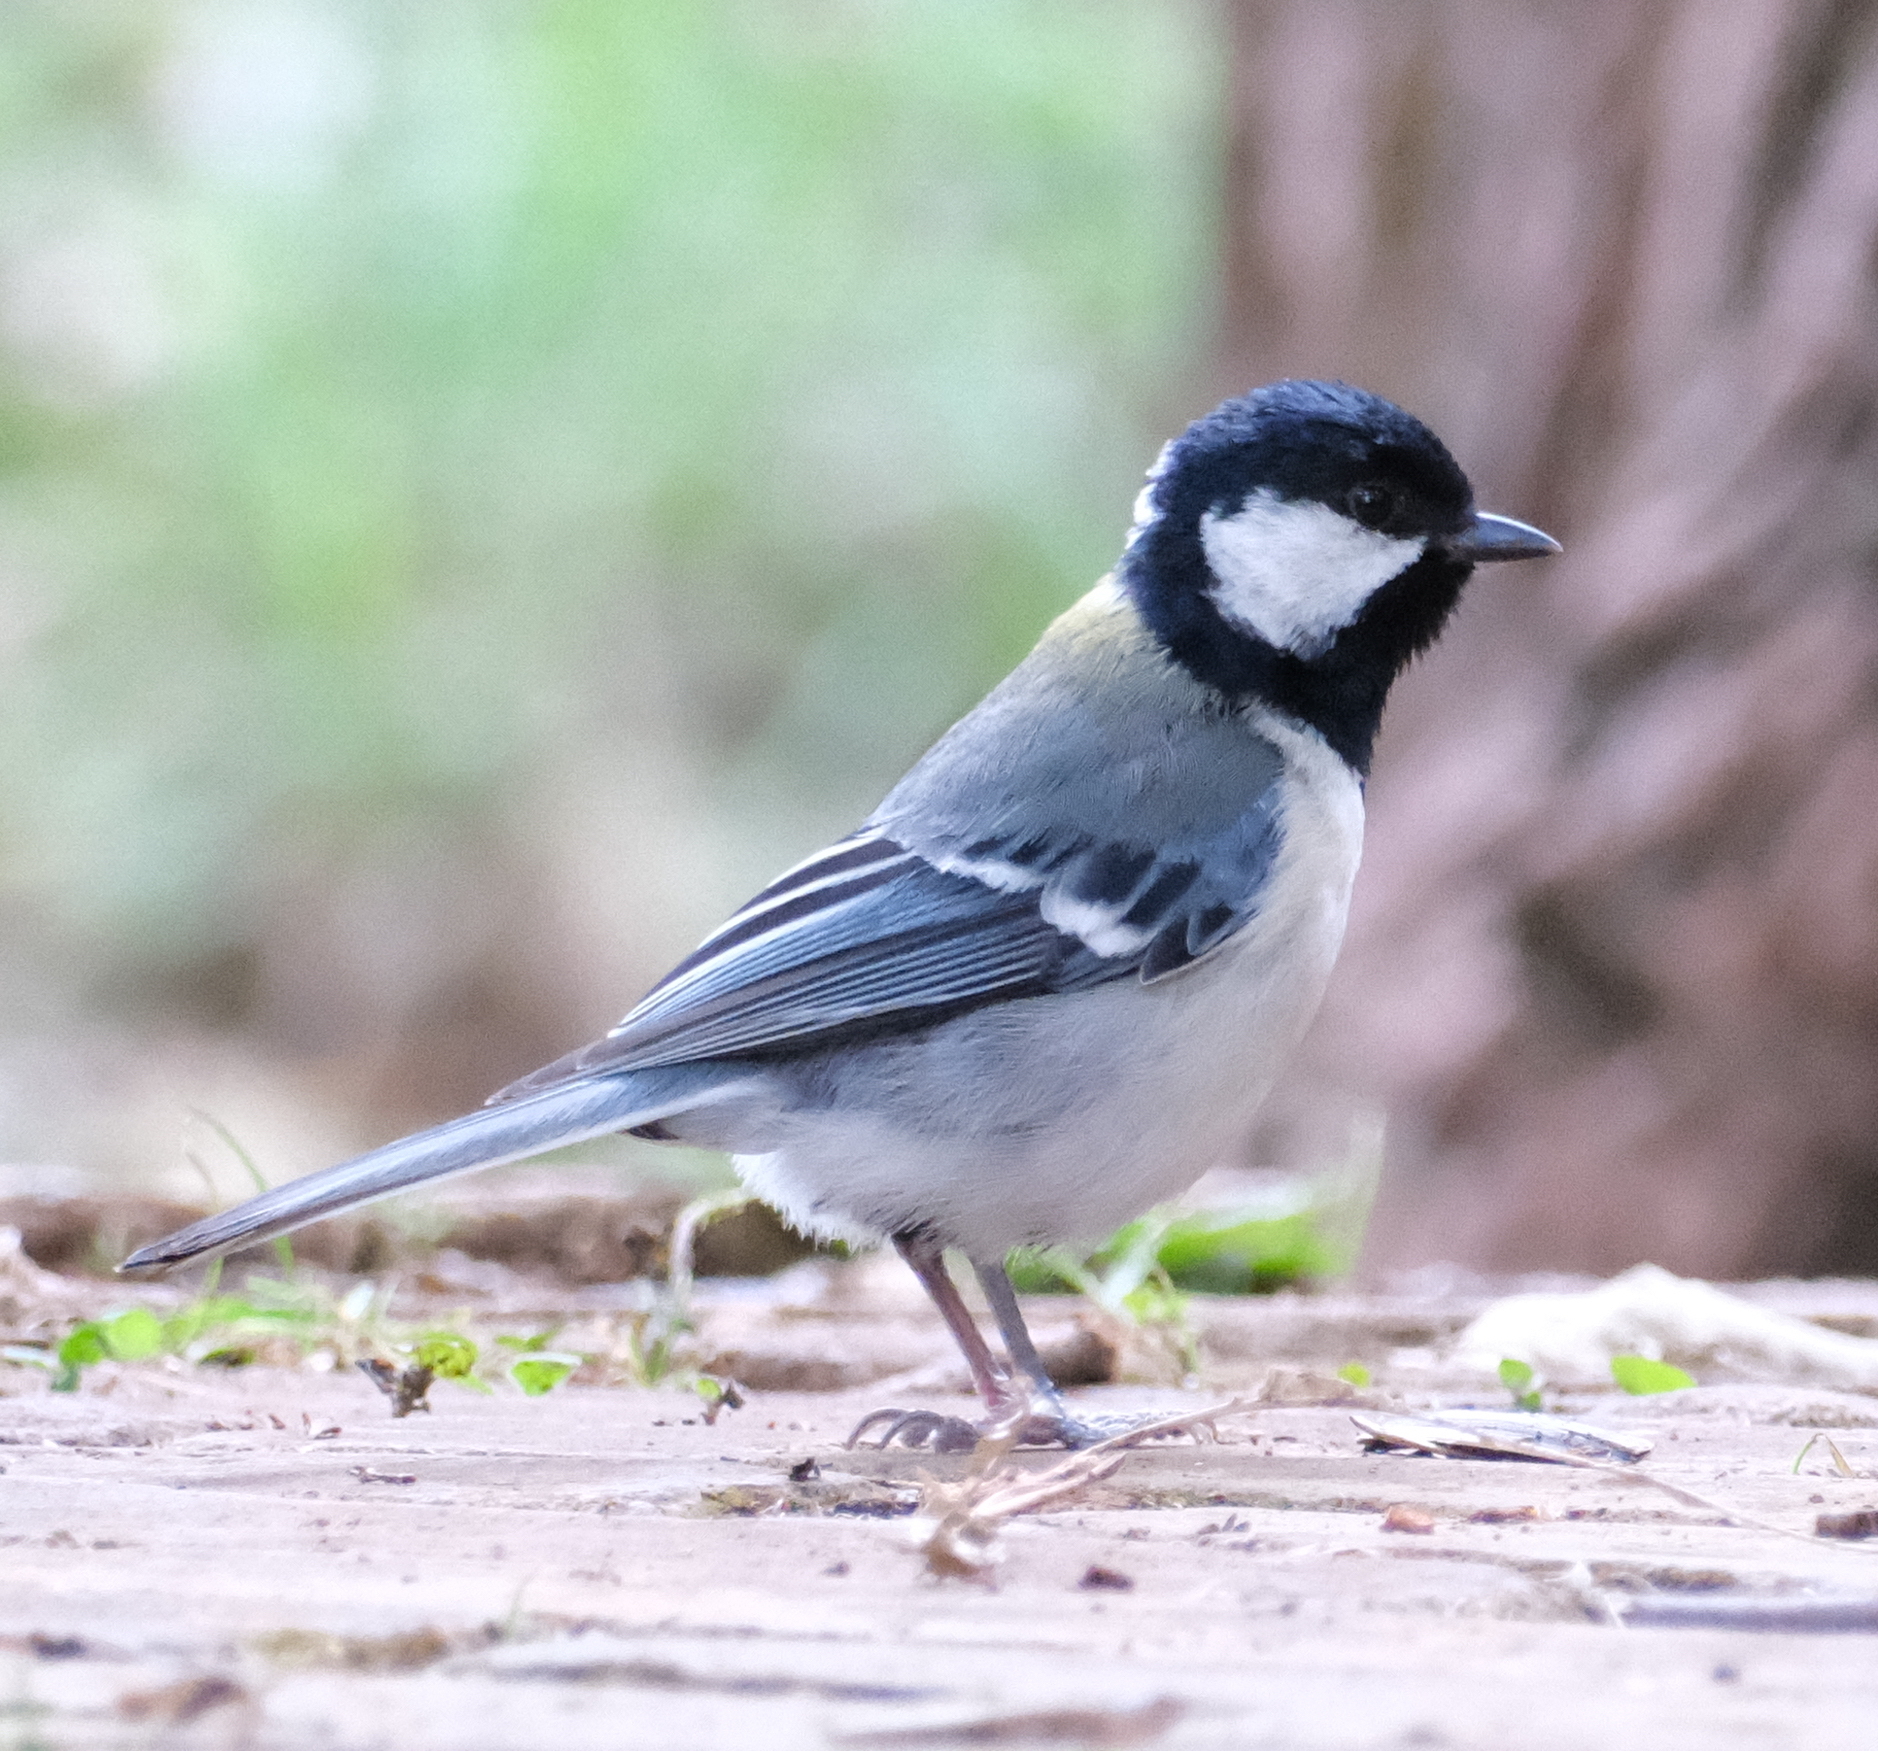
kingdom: Animalia
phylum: Chordata
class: Aves
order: Passeriformes
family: Paridae
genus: Parus
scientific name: Parus minor
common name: Japanese tit
